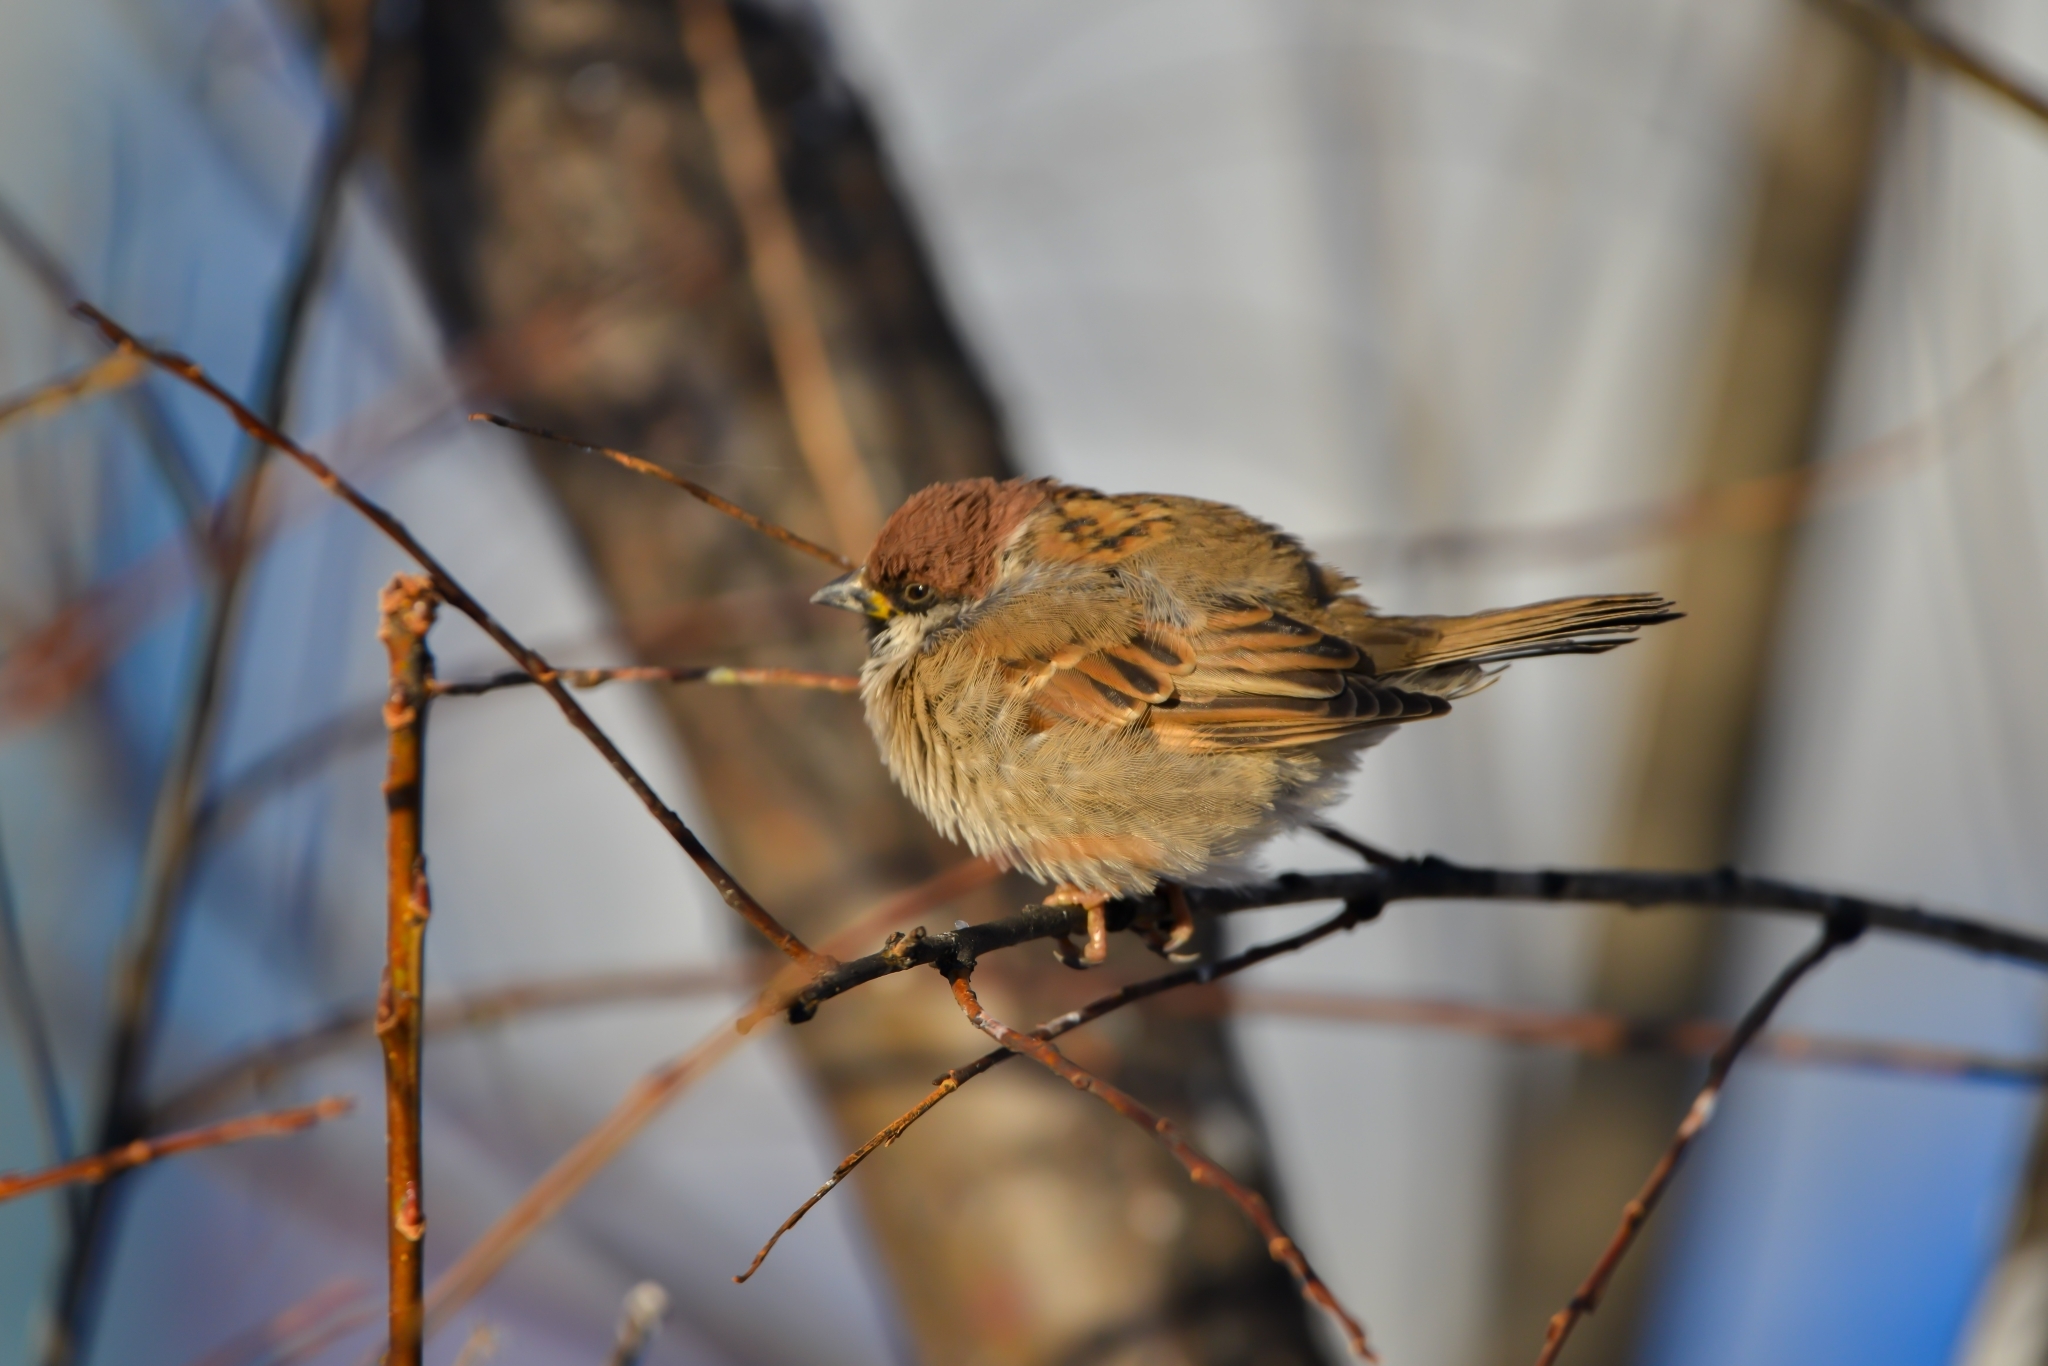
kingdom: Animalia
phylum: Chordata
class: Aves
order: Passeriformes
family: Passeridae
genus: Passer
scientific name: Passer montanus
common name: Eurasian tree sparrow
